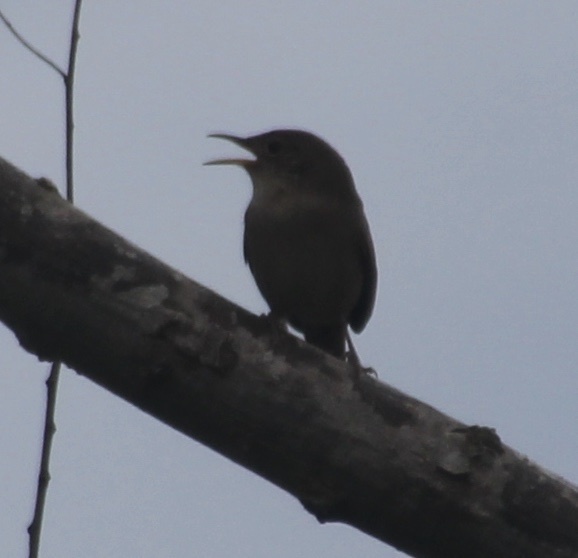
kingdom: Animalia
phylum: Chordata
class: Aves
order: Passeriformes
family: Troglodytidae
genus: Troglodytes
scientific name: Troglodytes aedon
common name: House wren
